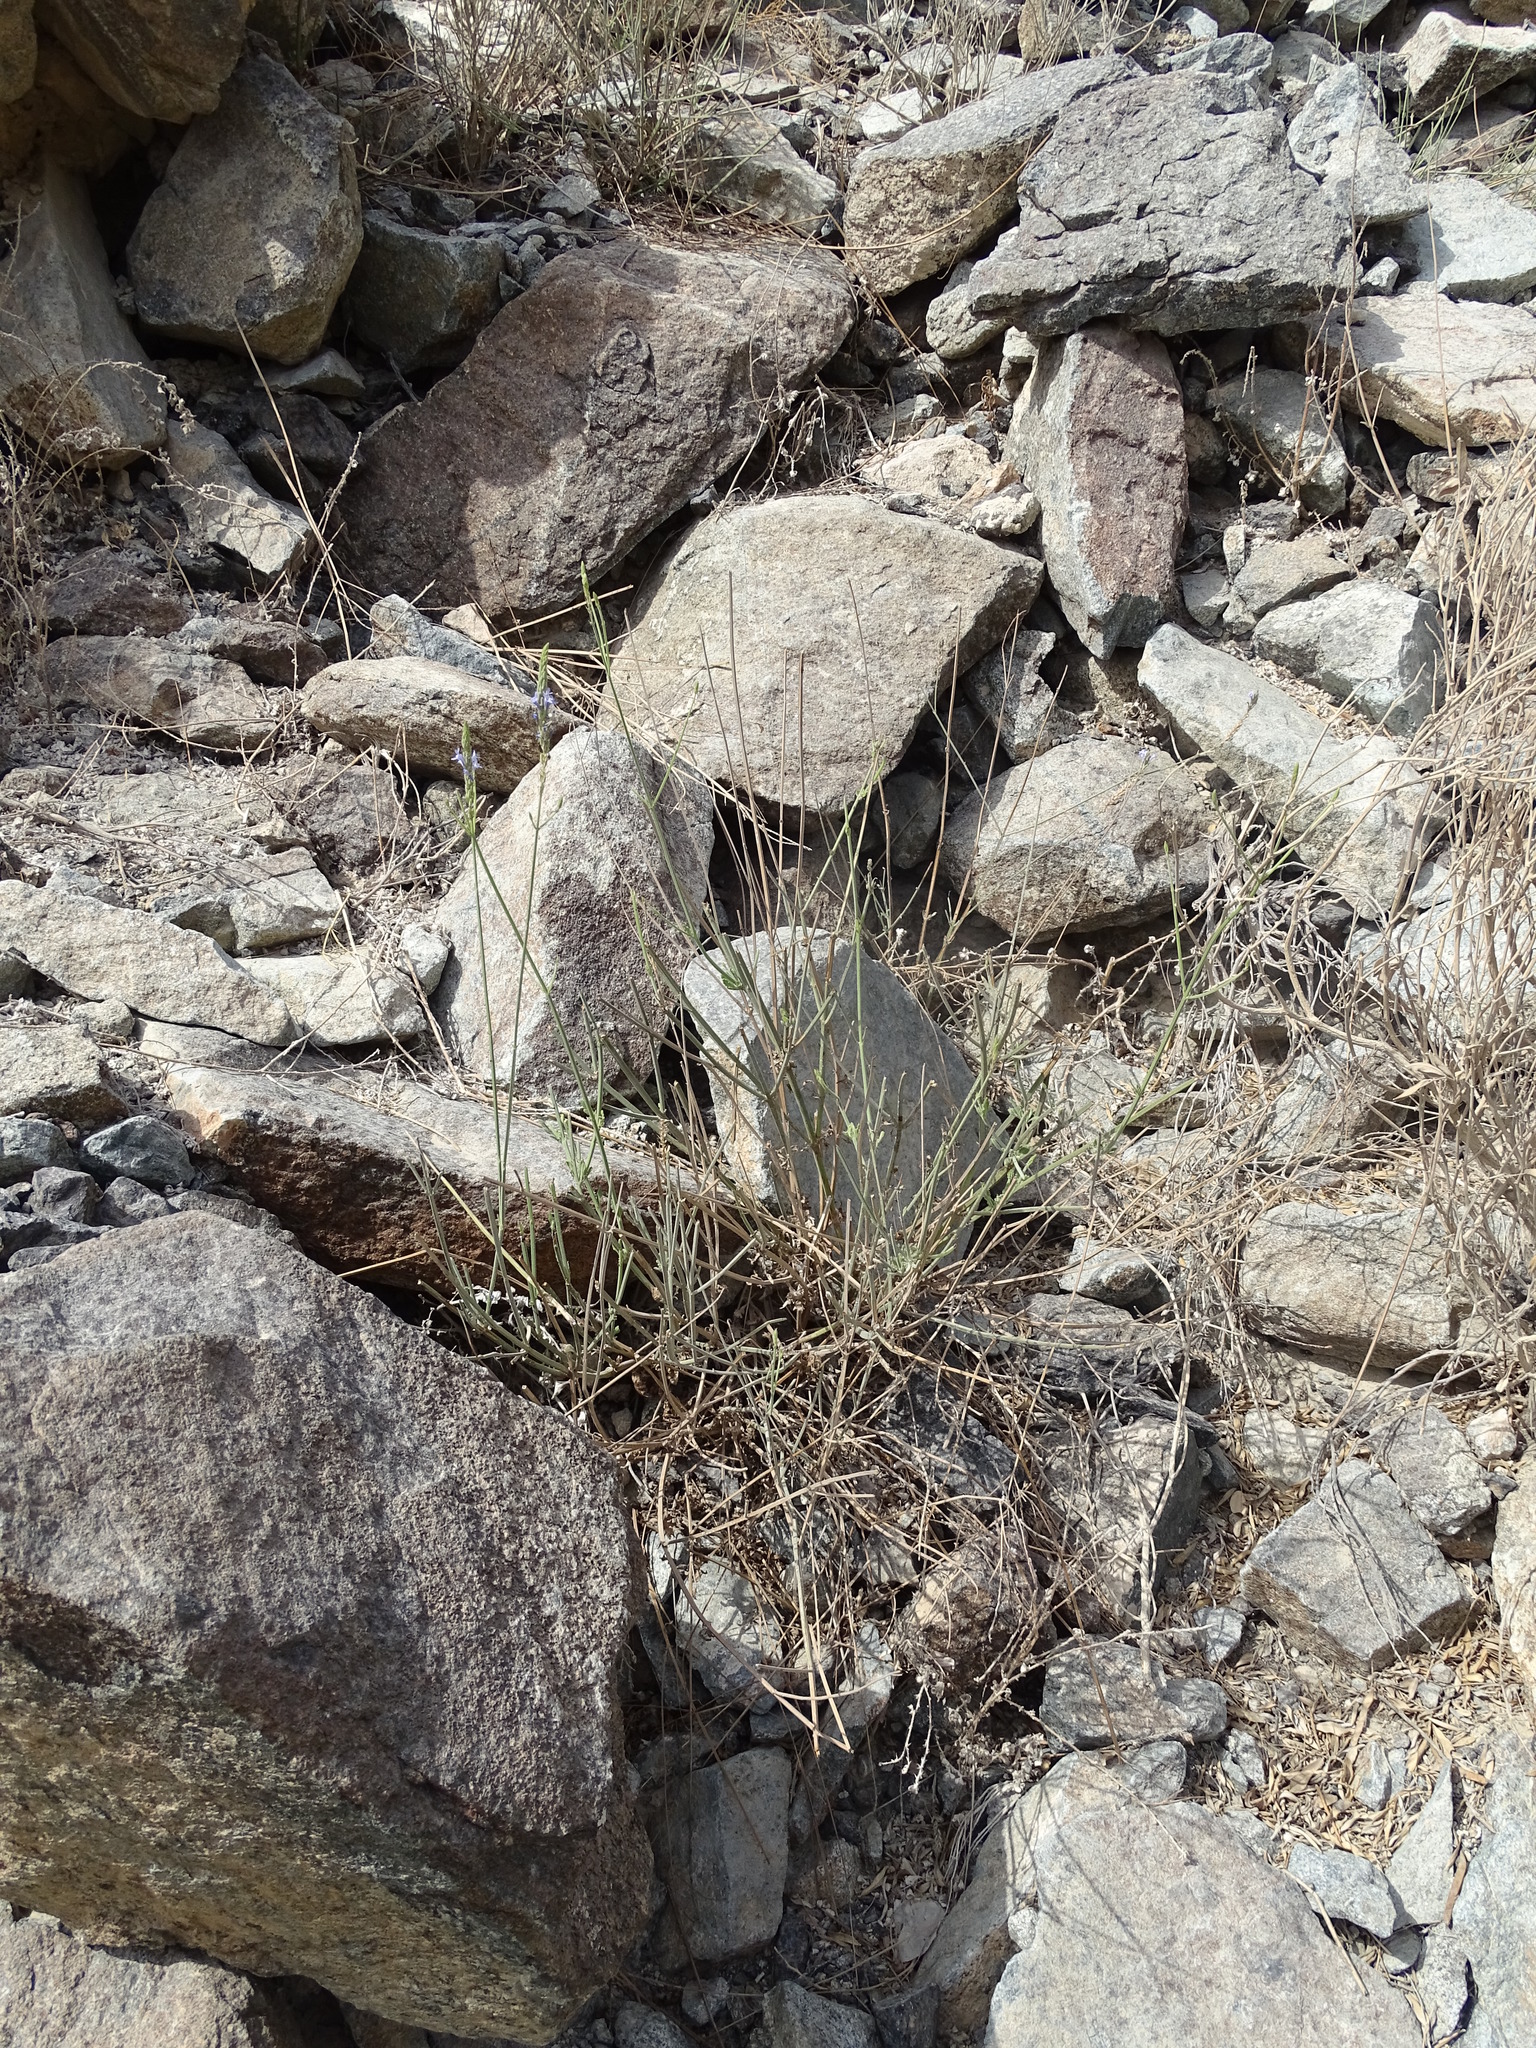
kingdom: Plantae
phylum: Tracheophyta
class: Magnoliopsida
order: Lamiales
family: Lamiaceae
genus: Lavandula
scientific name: Lavandula subnuda
